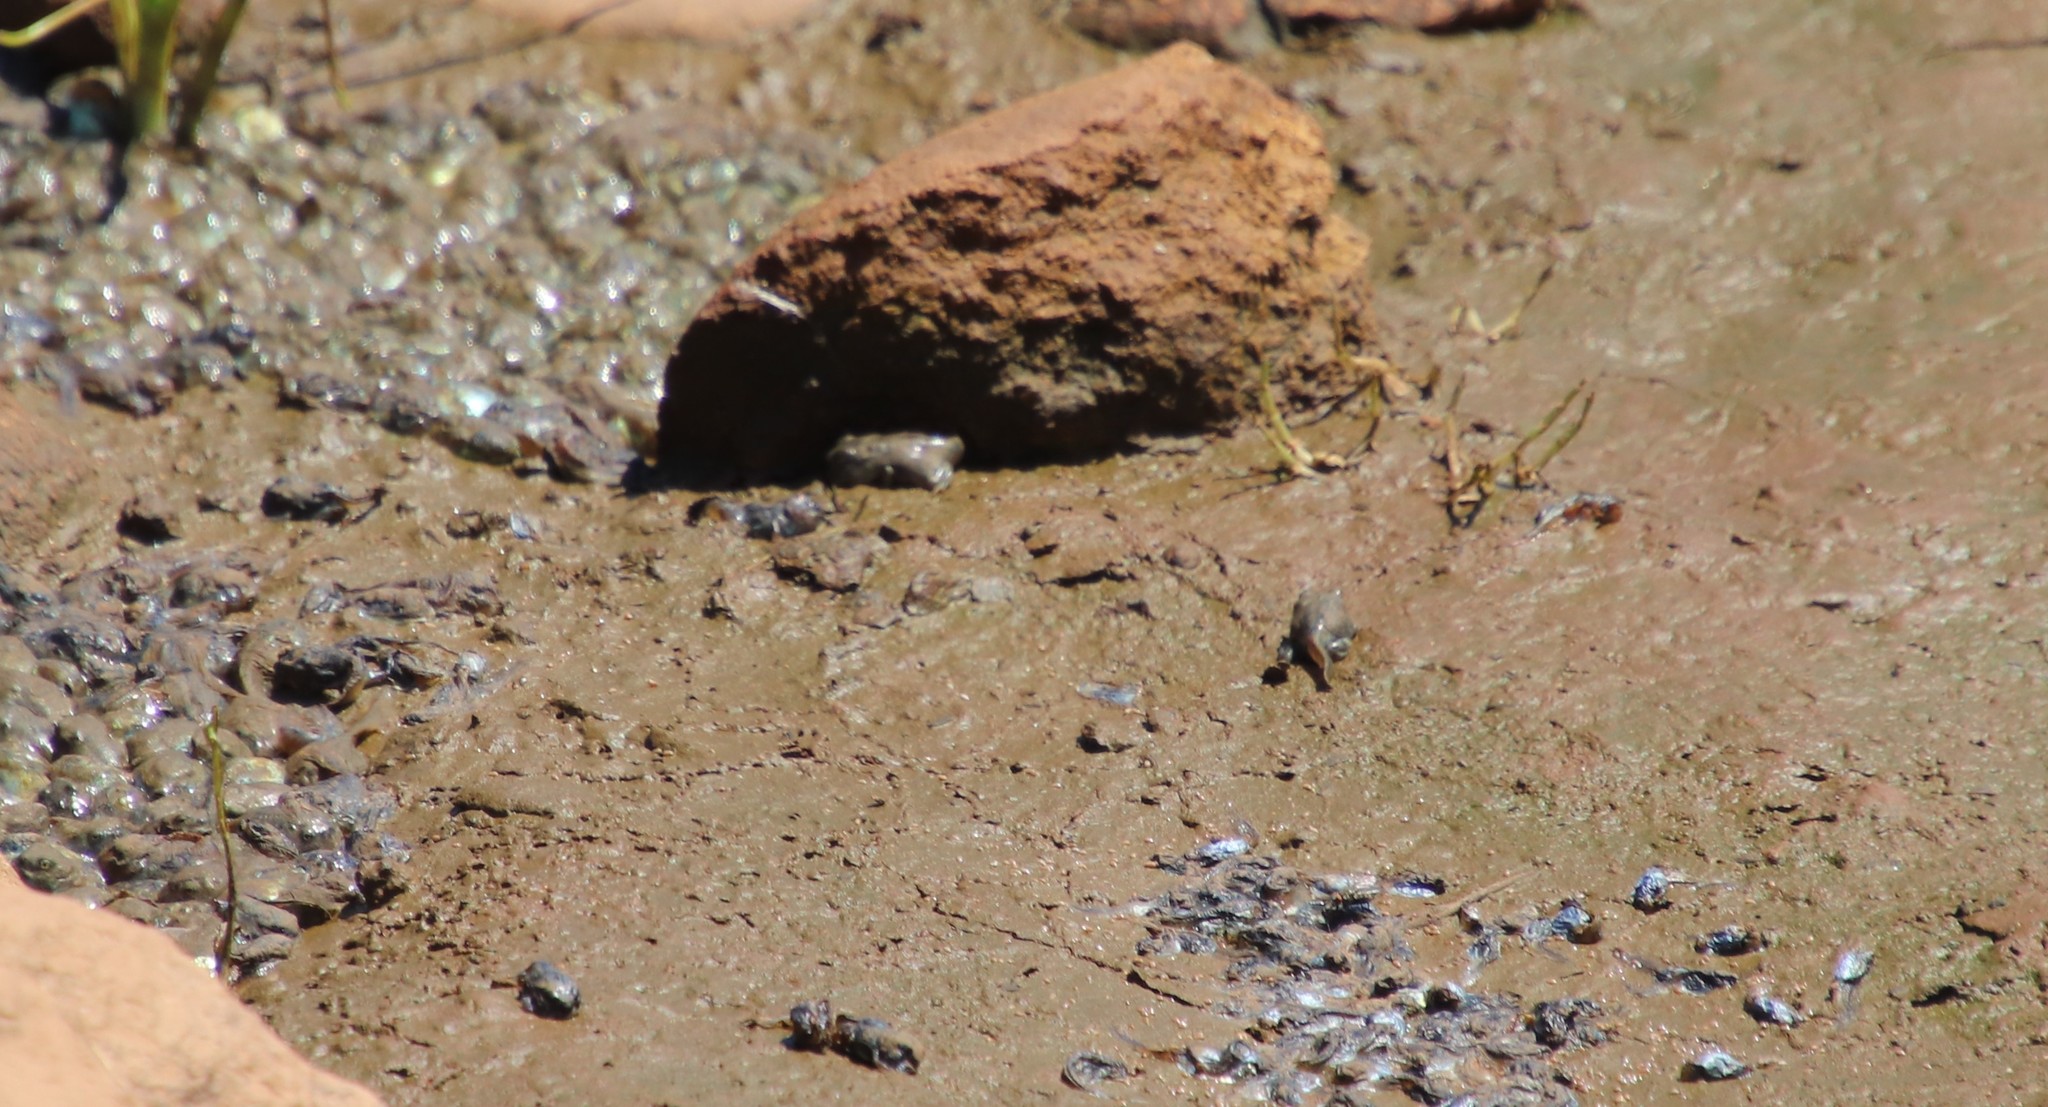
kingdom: Animalia
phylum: Chordata
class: Amphibia
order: Anura
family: Scaphiopodidae
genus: Spea
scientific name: Spea hammondii
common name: Western spadefoot toad
